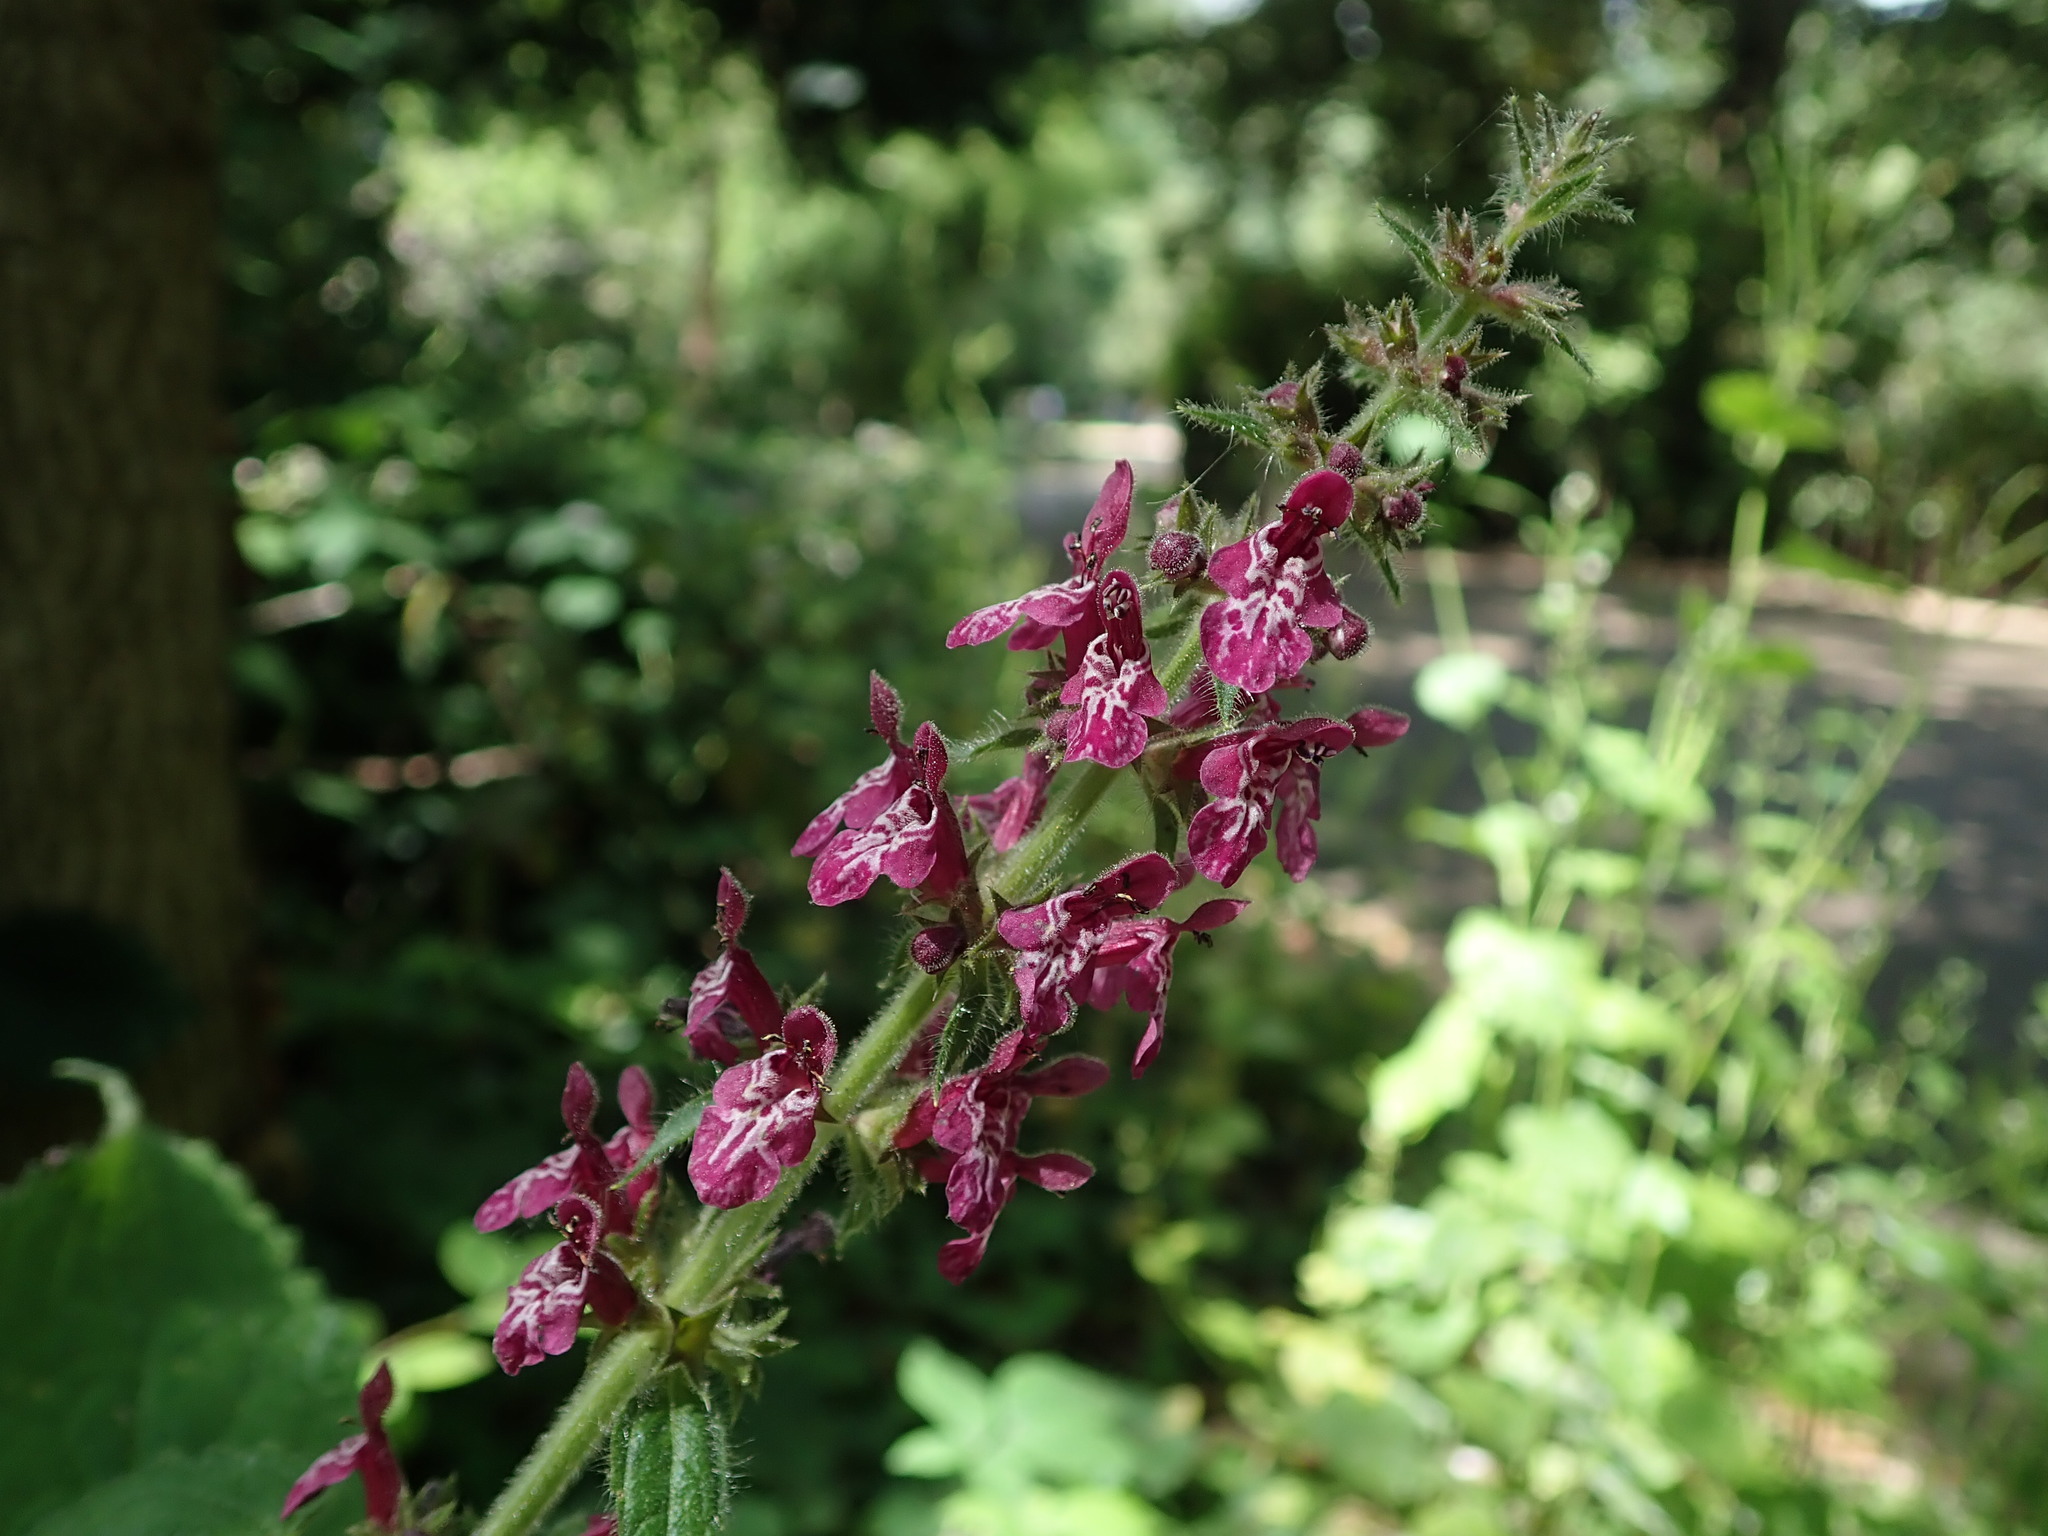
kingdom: Plantae
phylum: Tracheophyta
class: Magnoliopsida
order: Lamiales
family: Lamiaceae
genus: Stachys
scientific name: Stachys sylvatica
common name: Hedge woundwort
